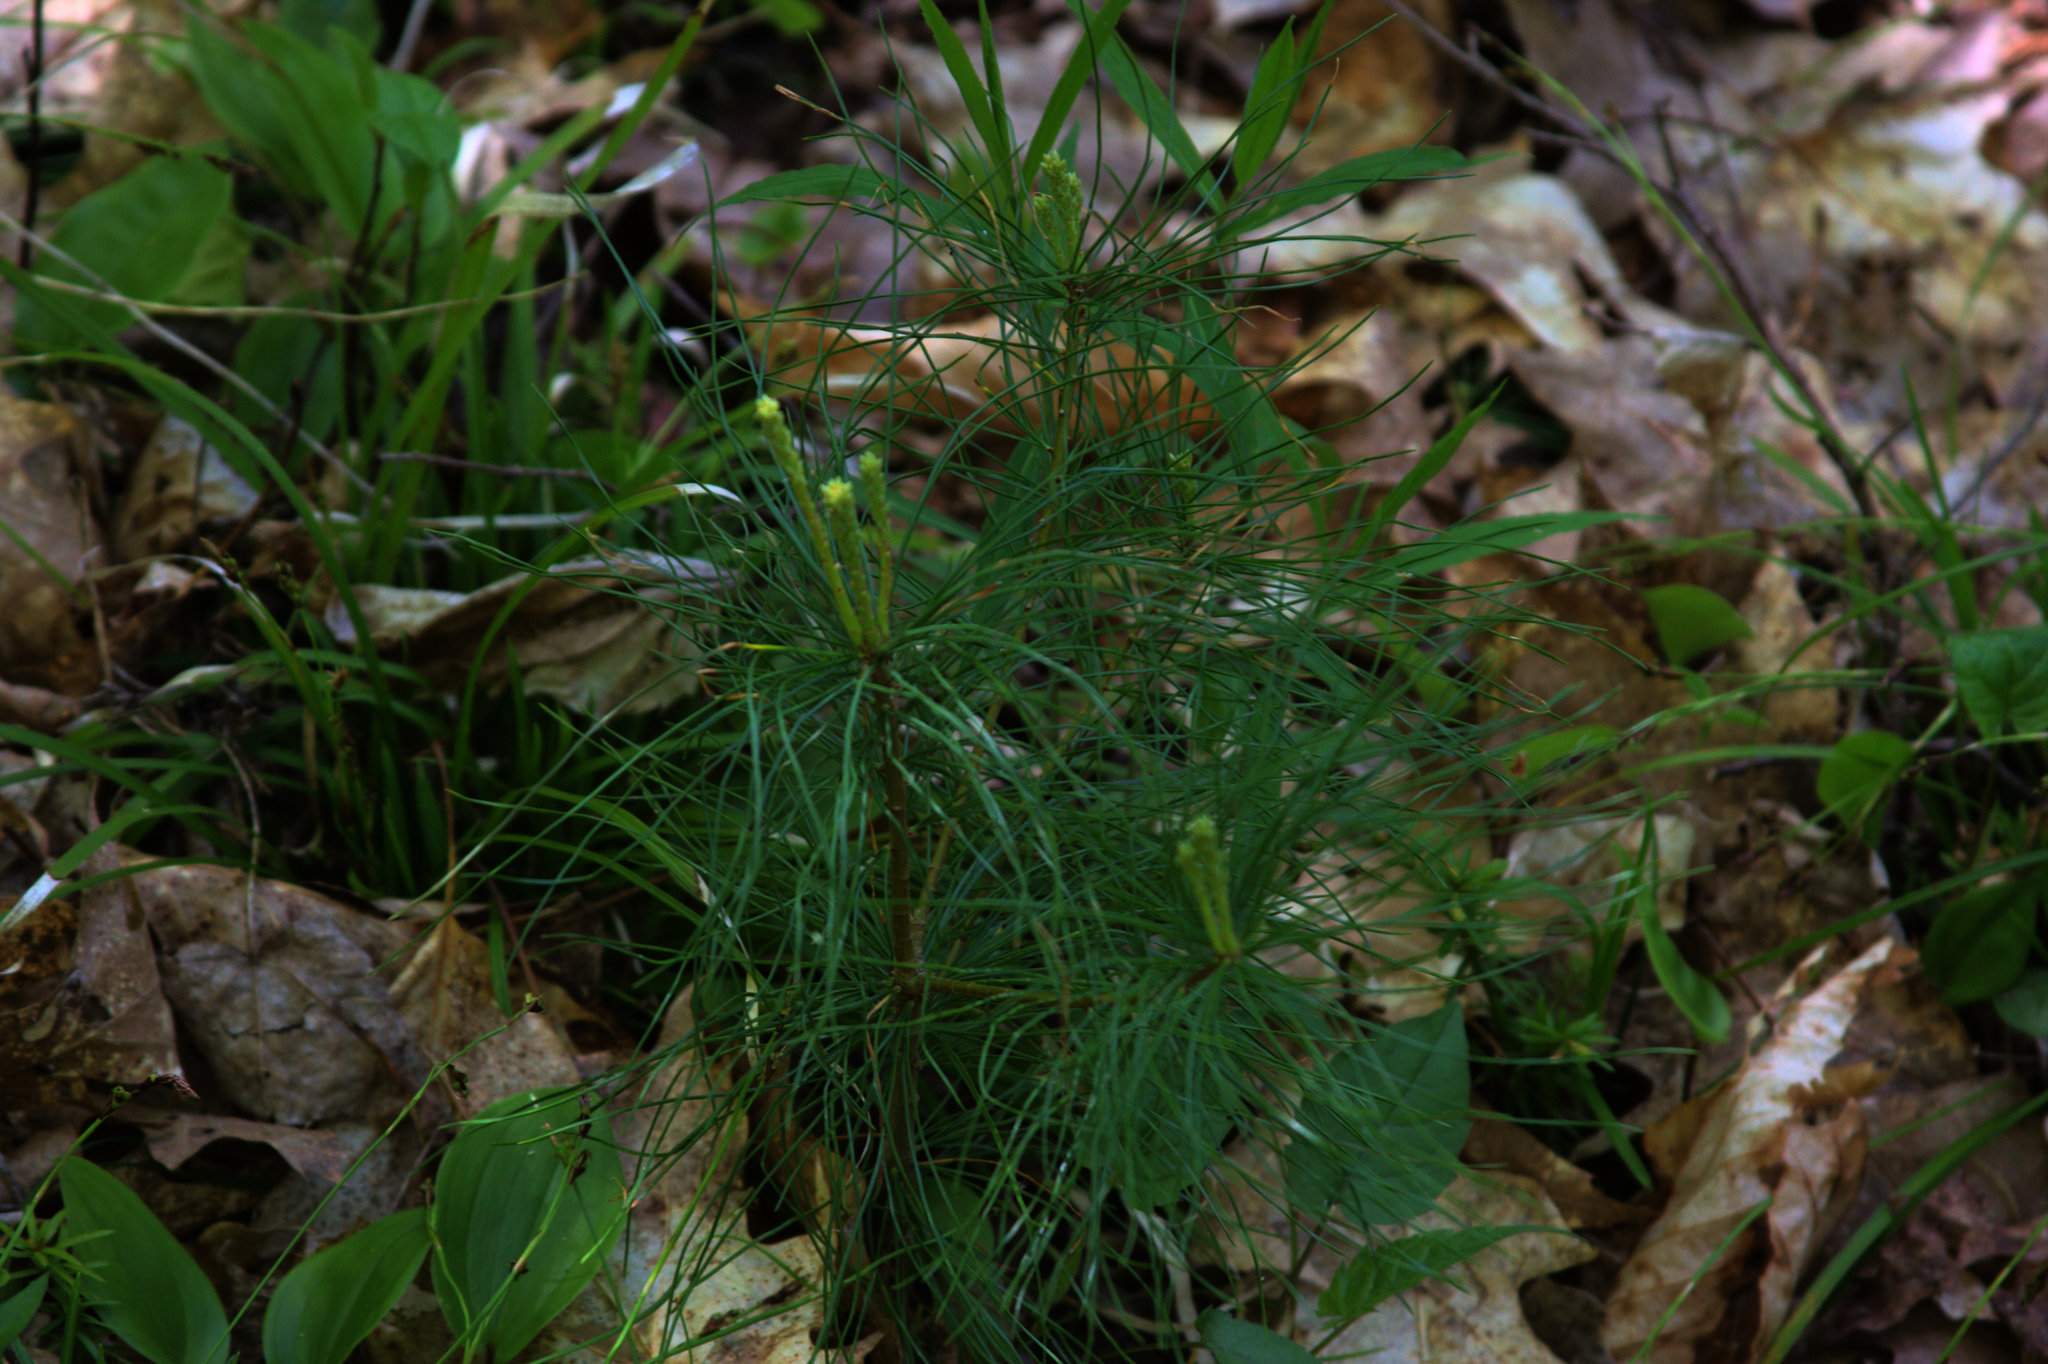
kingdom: Plantae
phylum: Tracheophyta
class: Pinopsida
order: Pinales
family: Pinaceae
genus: Pinus
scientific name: Pinus strobus
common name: Weymouth pine
